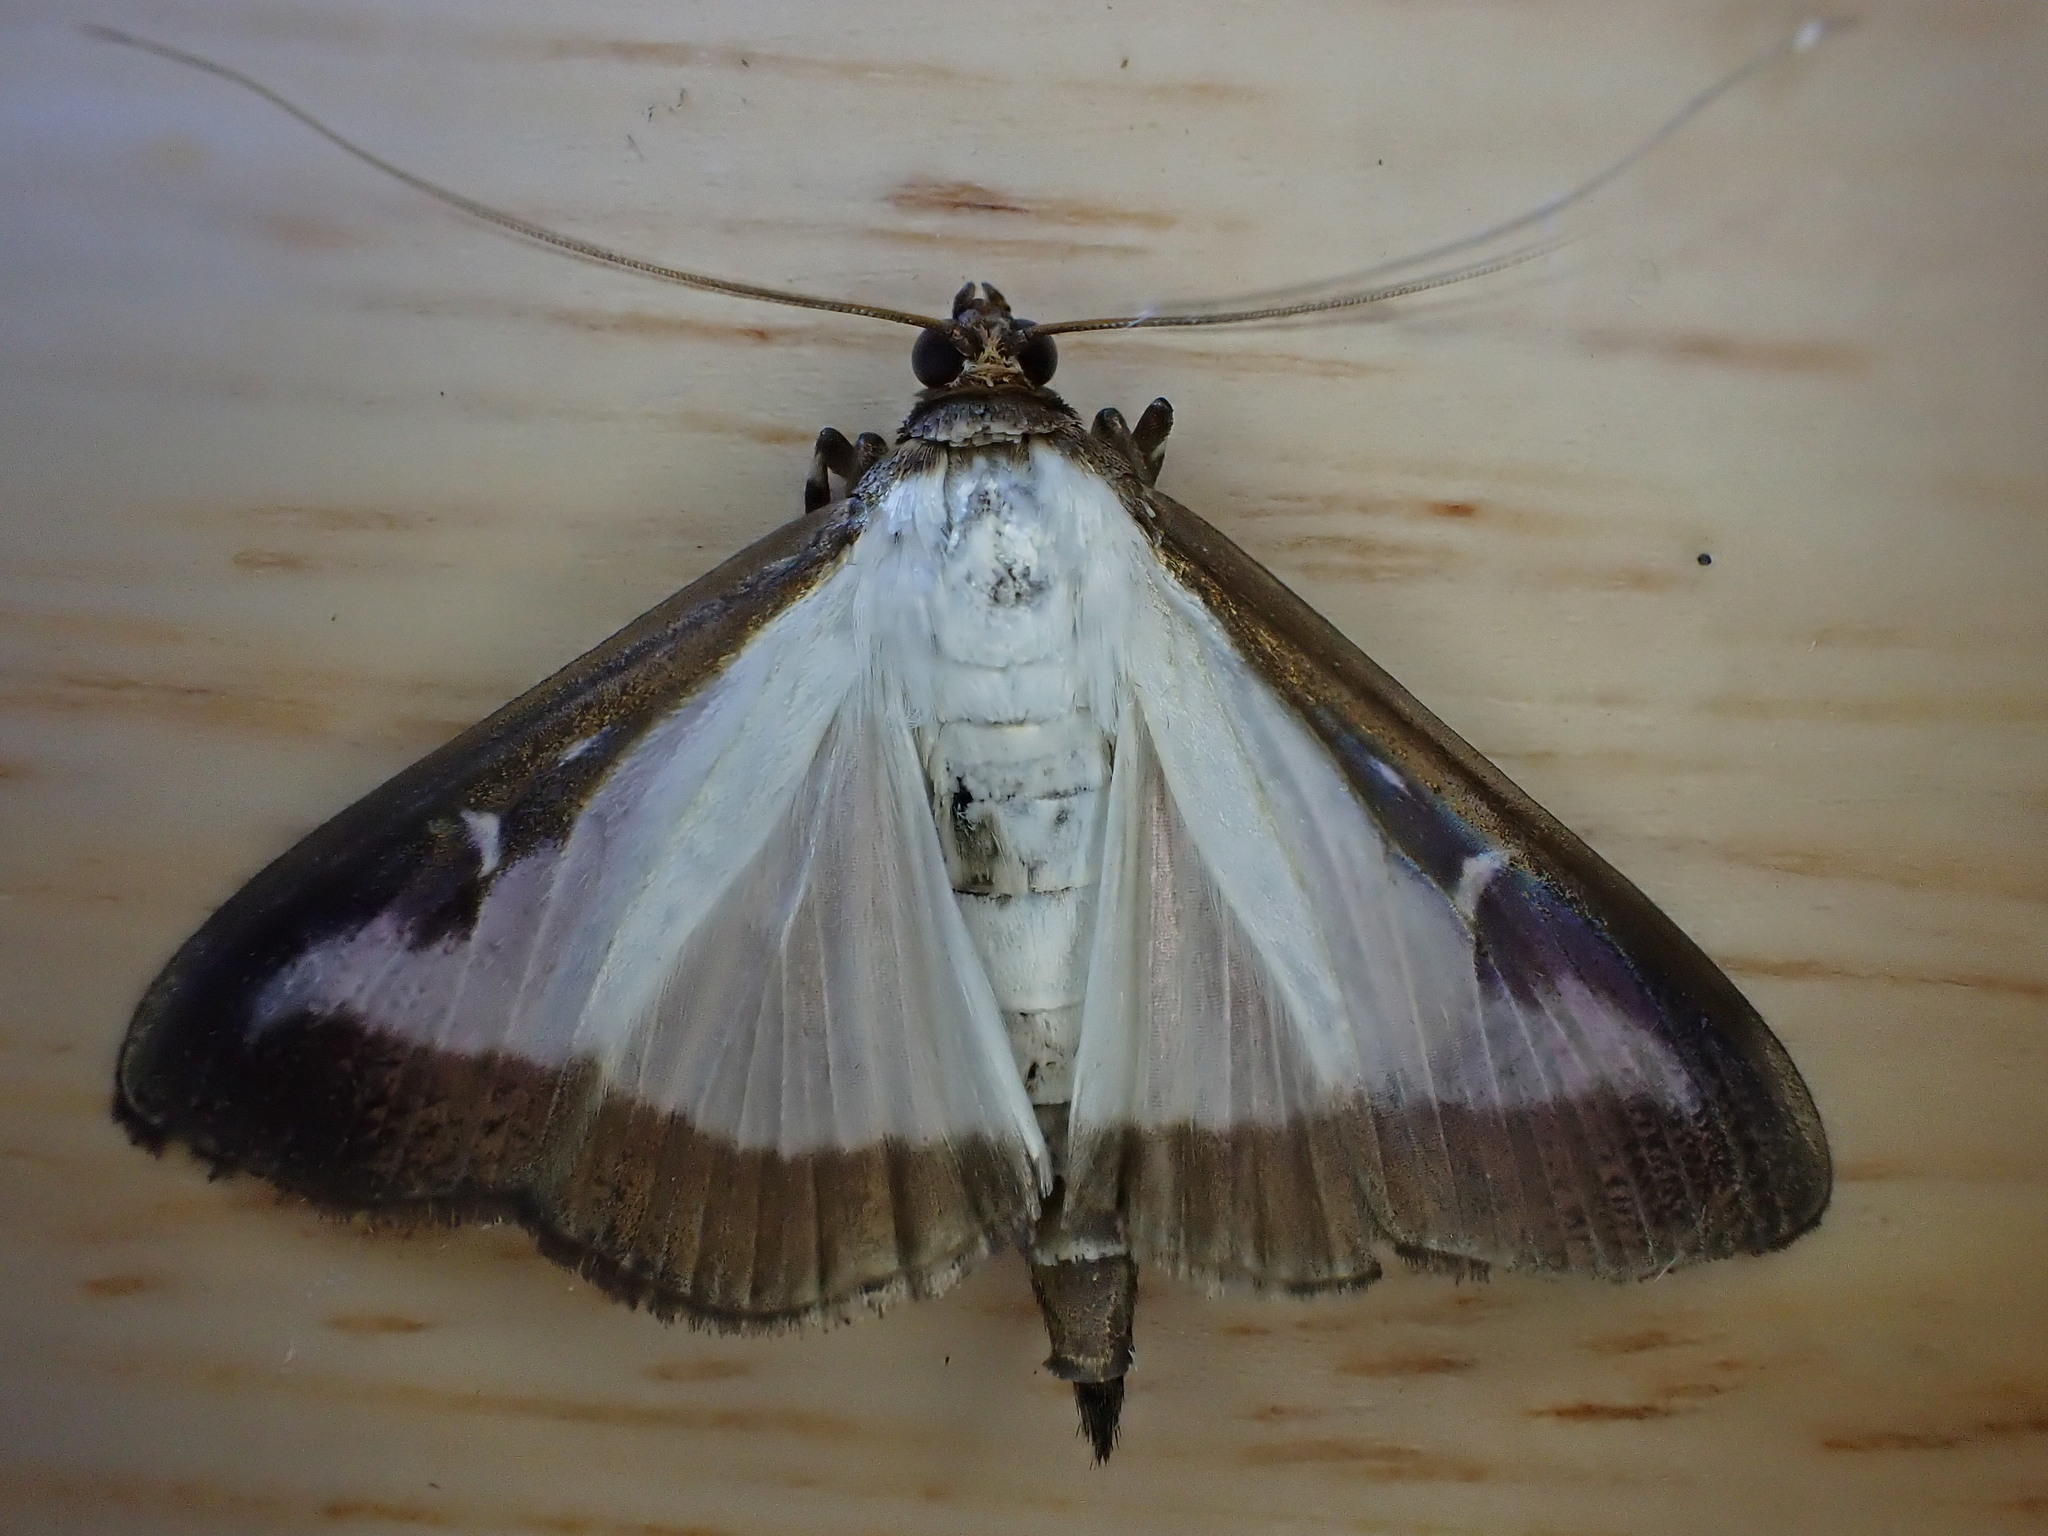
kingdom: Animalia
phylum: Arthropoda
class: Insecta
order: Lepidoptera
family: Crambidae
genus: Cydalima
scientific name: Cydalima perspectalis
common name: Box tree moth
